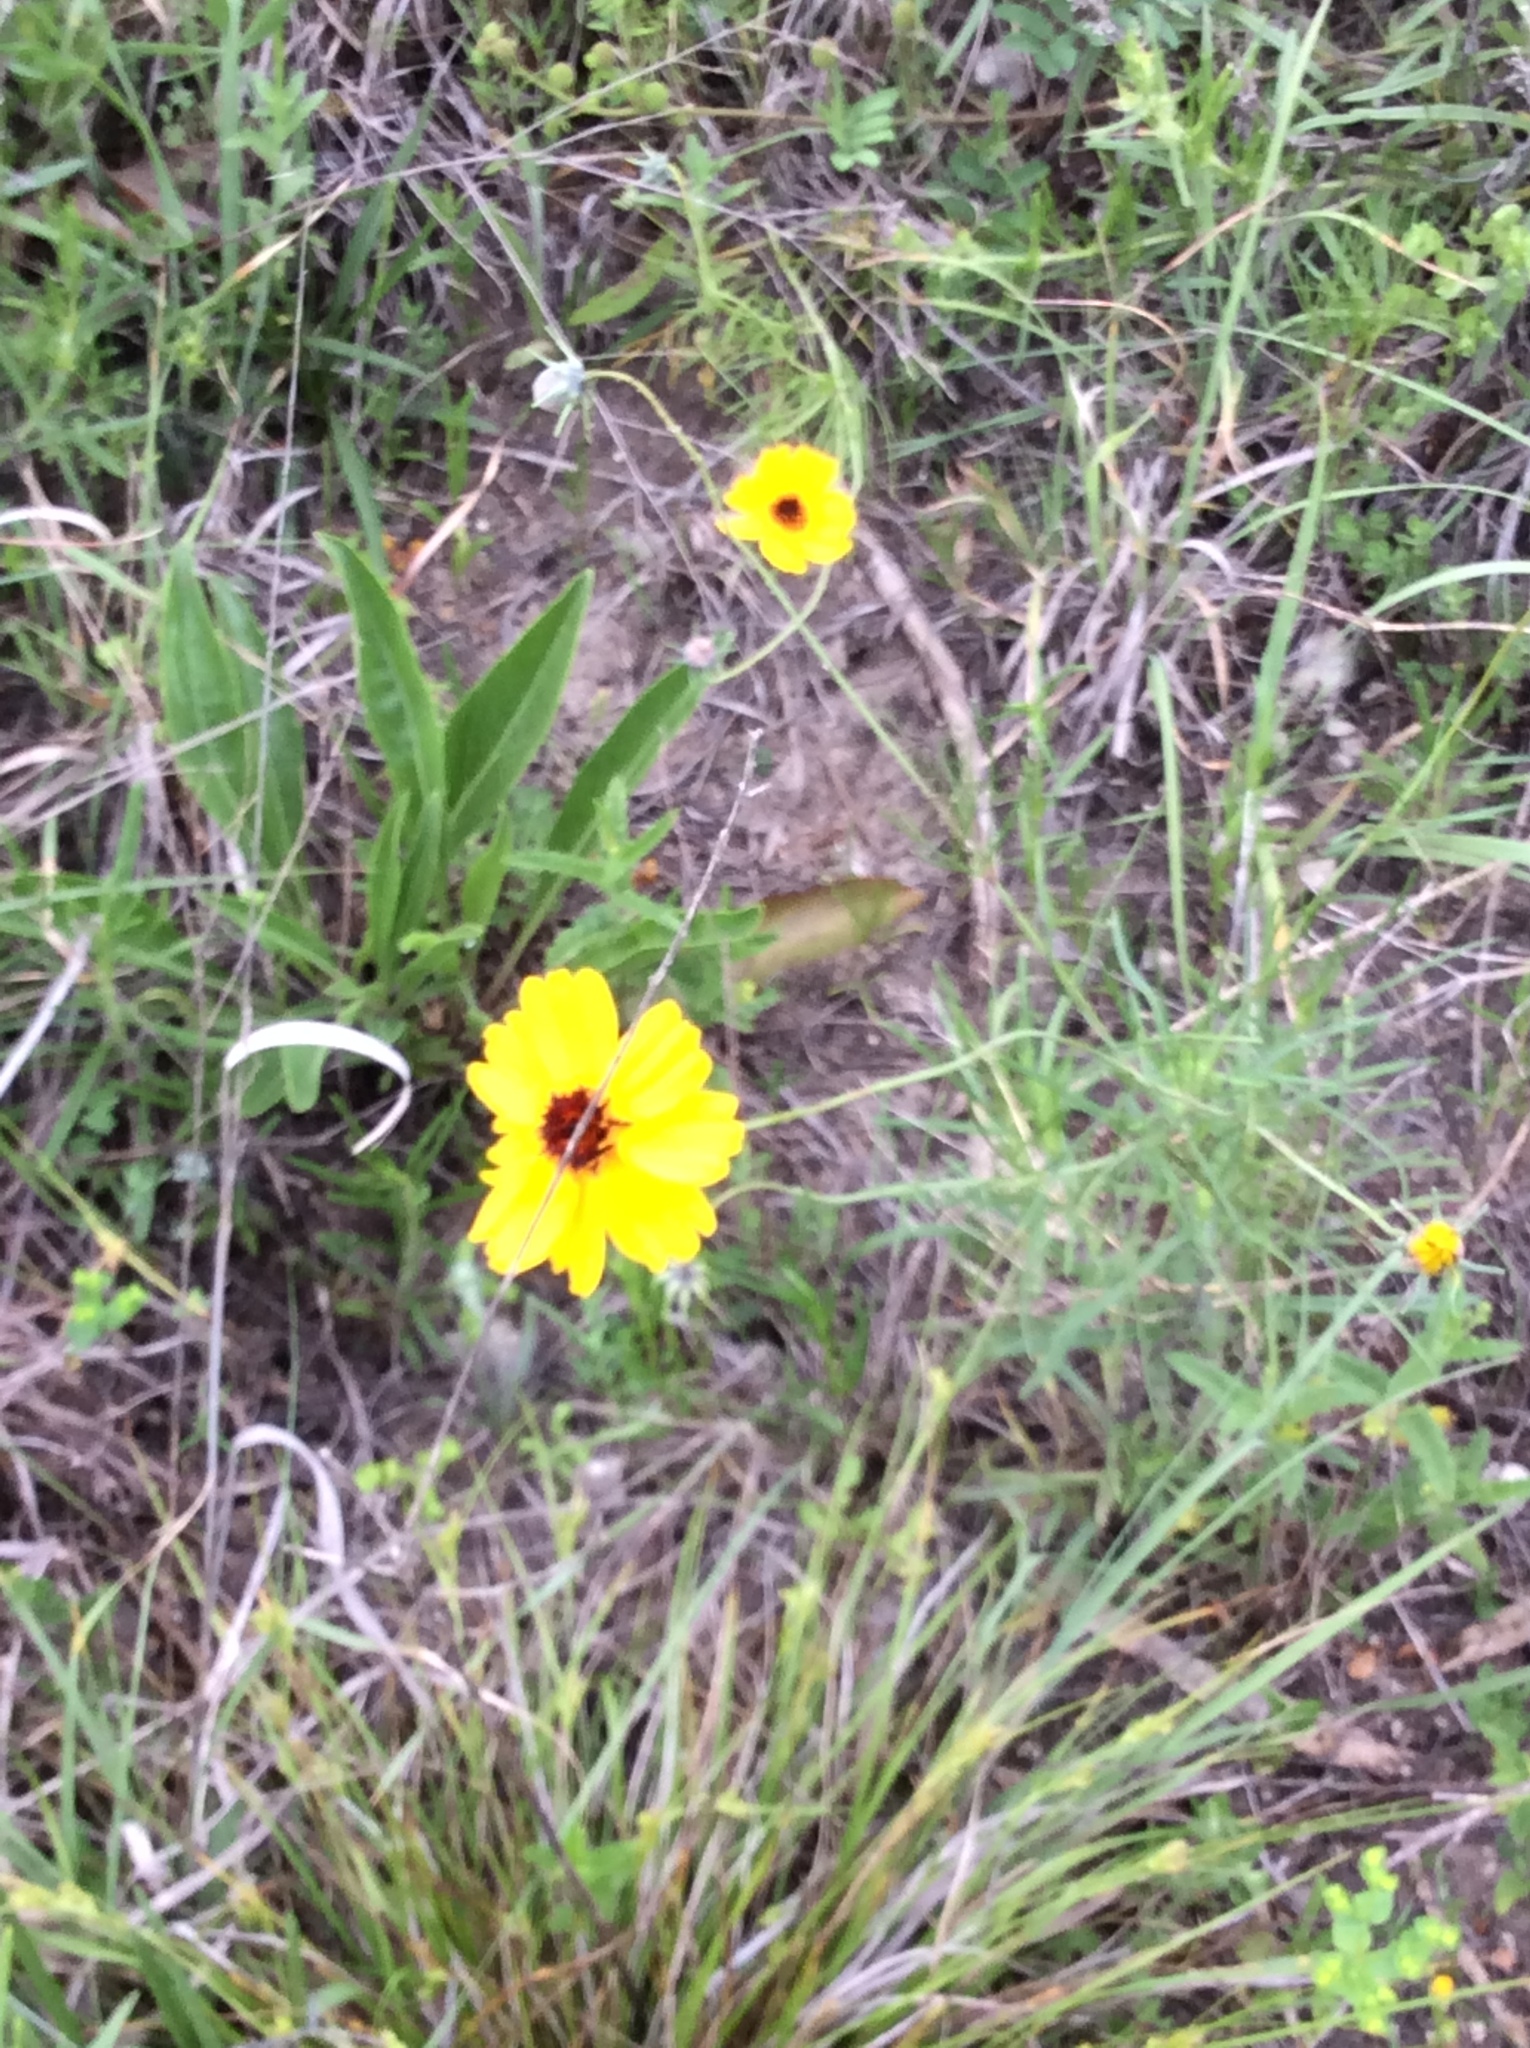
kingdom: Plantae
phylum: Tracheophyta
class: Magnoliopsida
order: Asterales
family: Asteraceae
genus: Thelesperma
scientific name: Thelesperma filifolium
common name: Stiff greenthread
